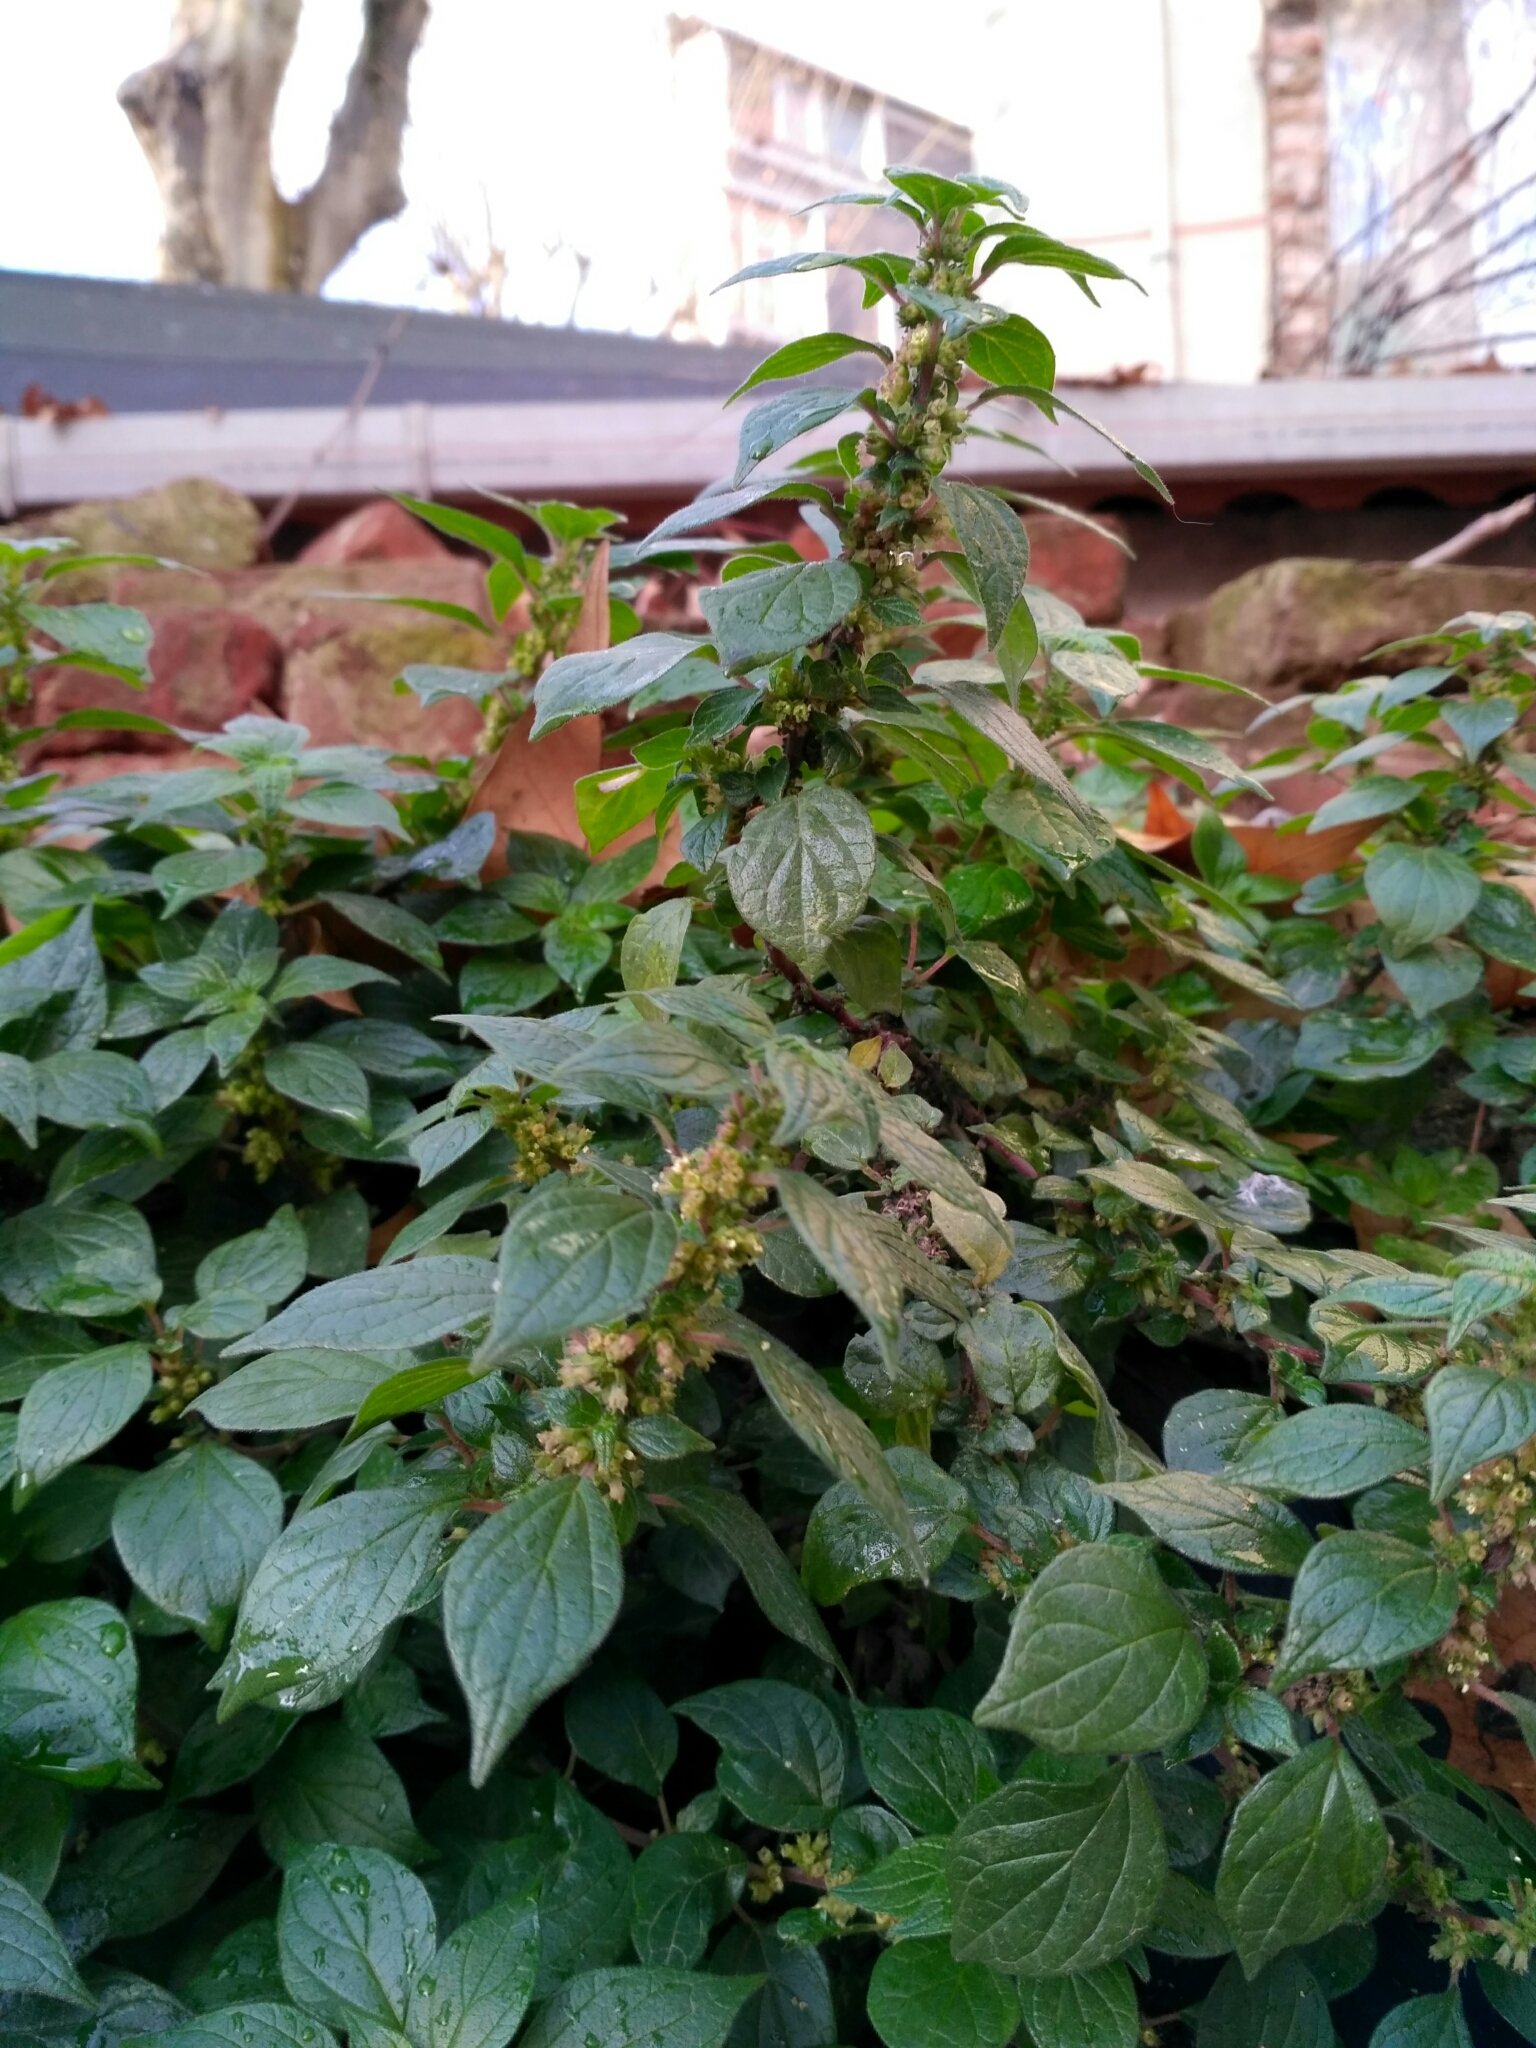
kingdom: Plantae
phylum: Tracheophyta
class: Magnoliopsida
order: Rosales
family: Urticaceae
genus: Parietaria
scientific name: Parietaria judaica
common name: Pellitory-of-the-wall
